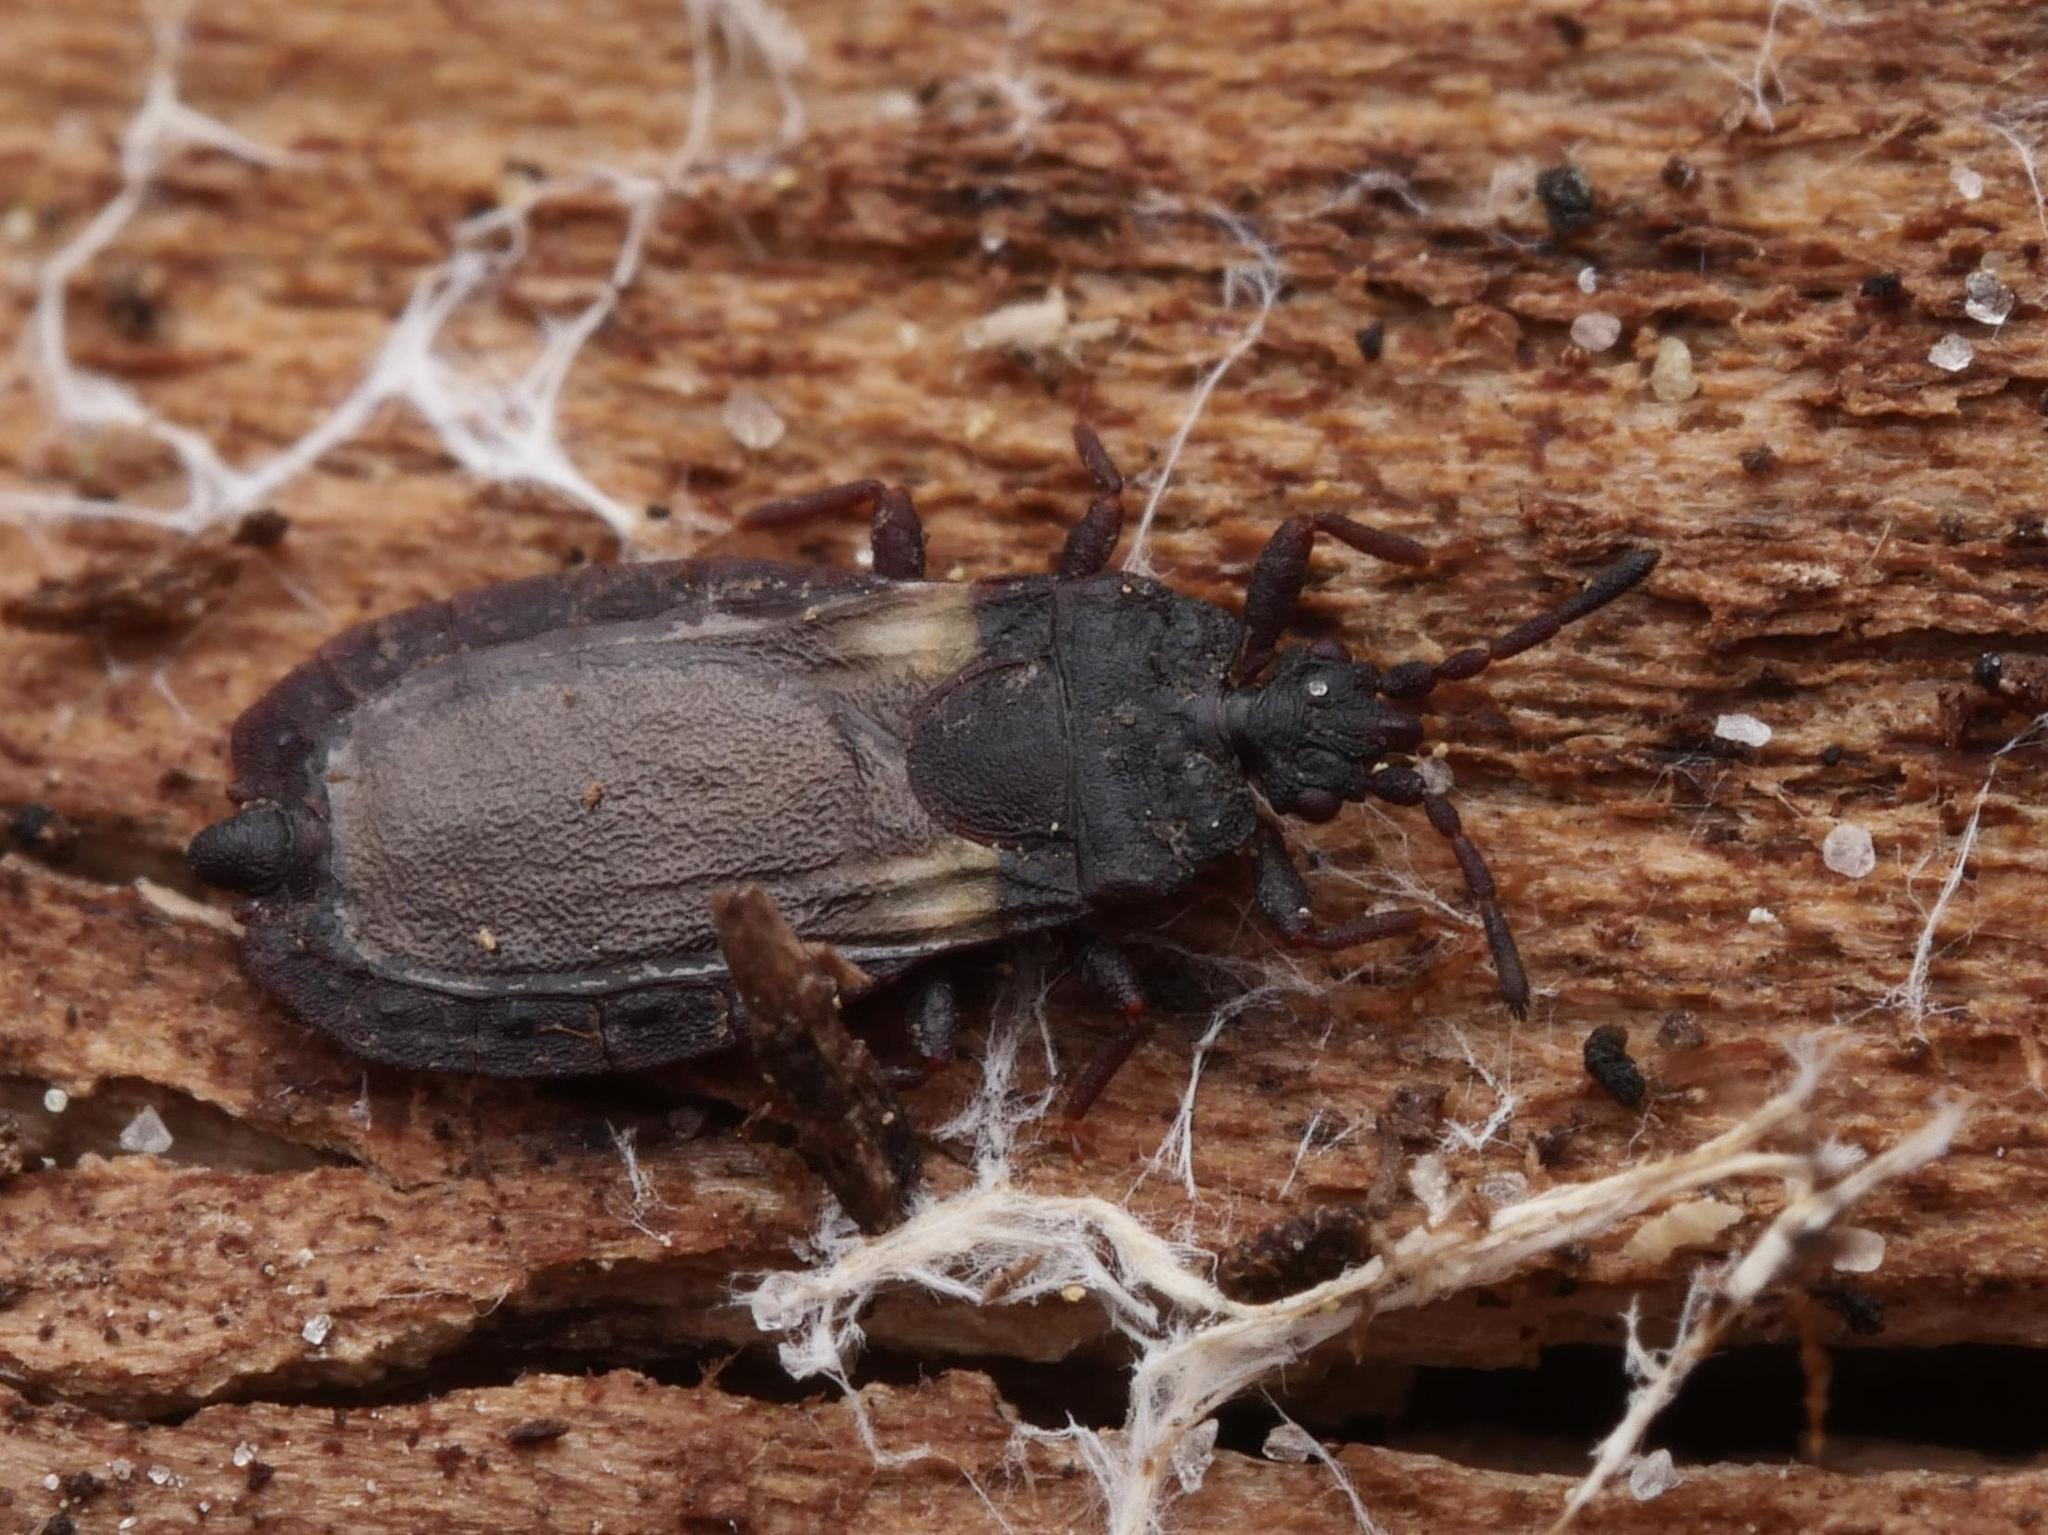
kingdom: Animalia
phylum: Arthropoda
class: Insecta
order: Hemiptera
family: Aradidae
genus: Aneurus
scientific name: Aneurus avenius
